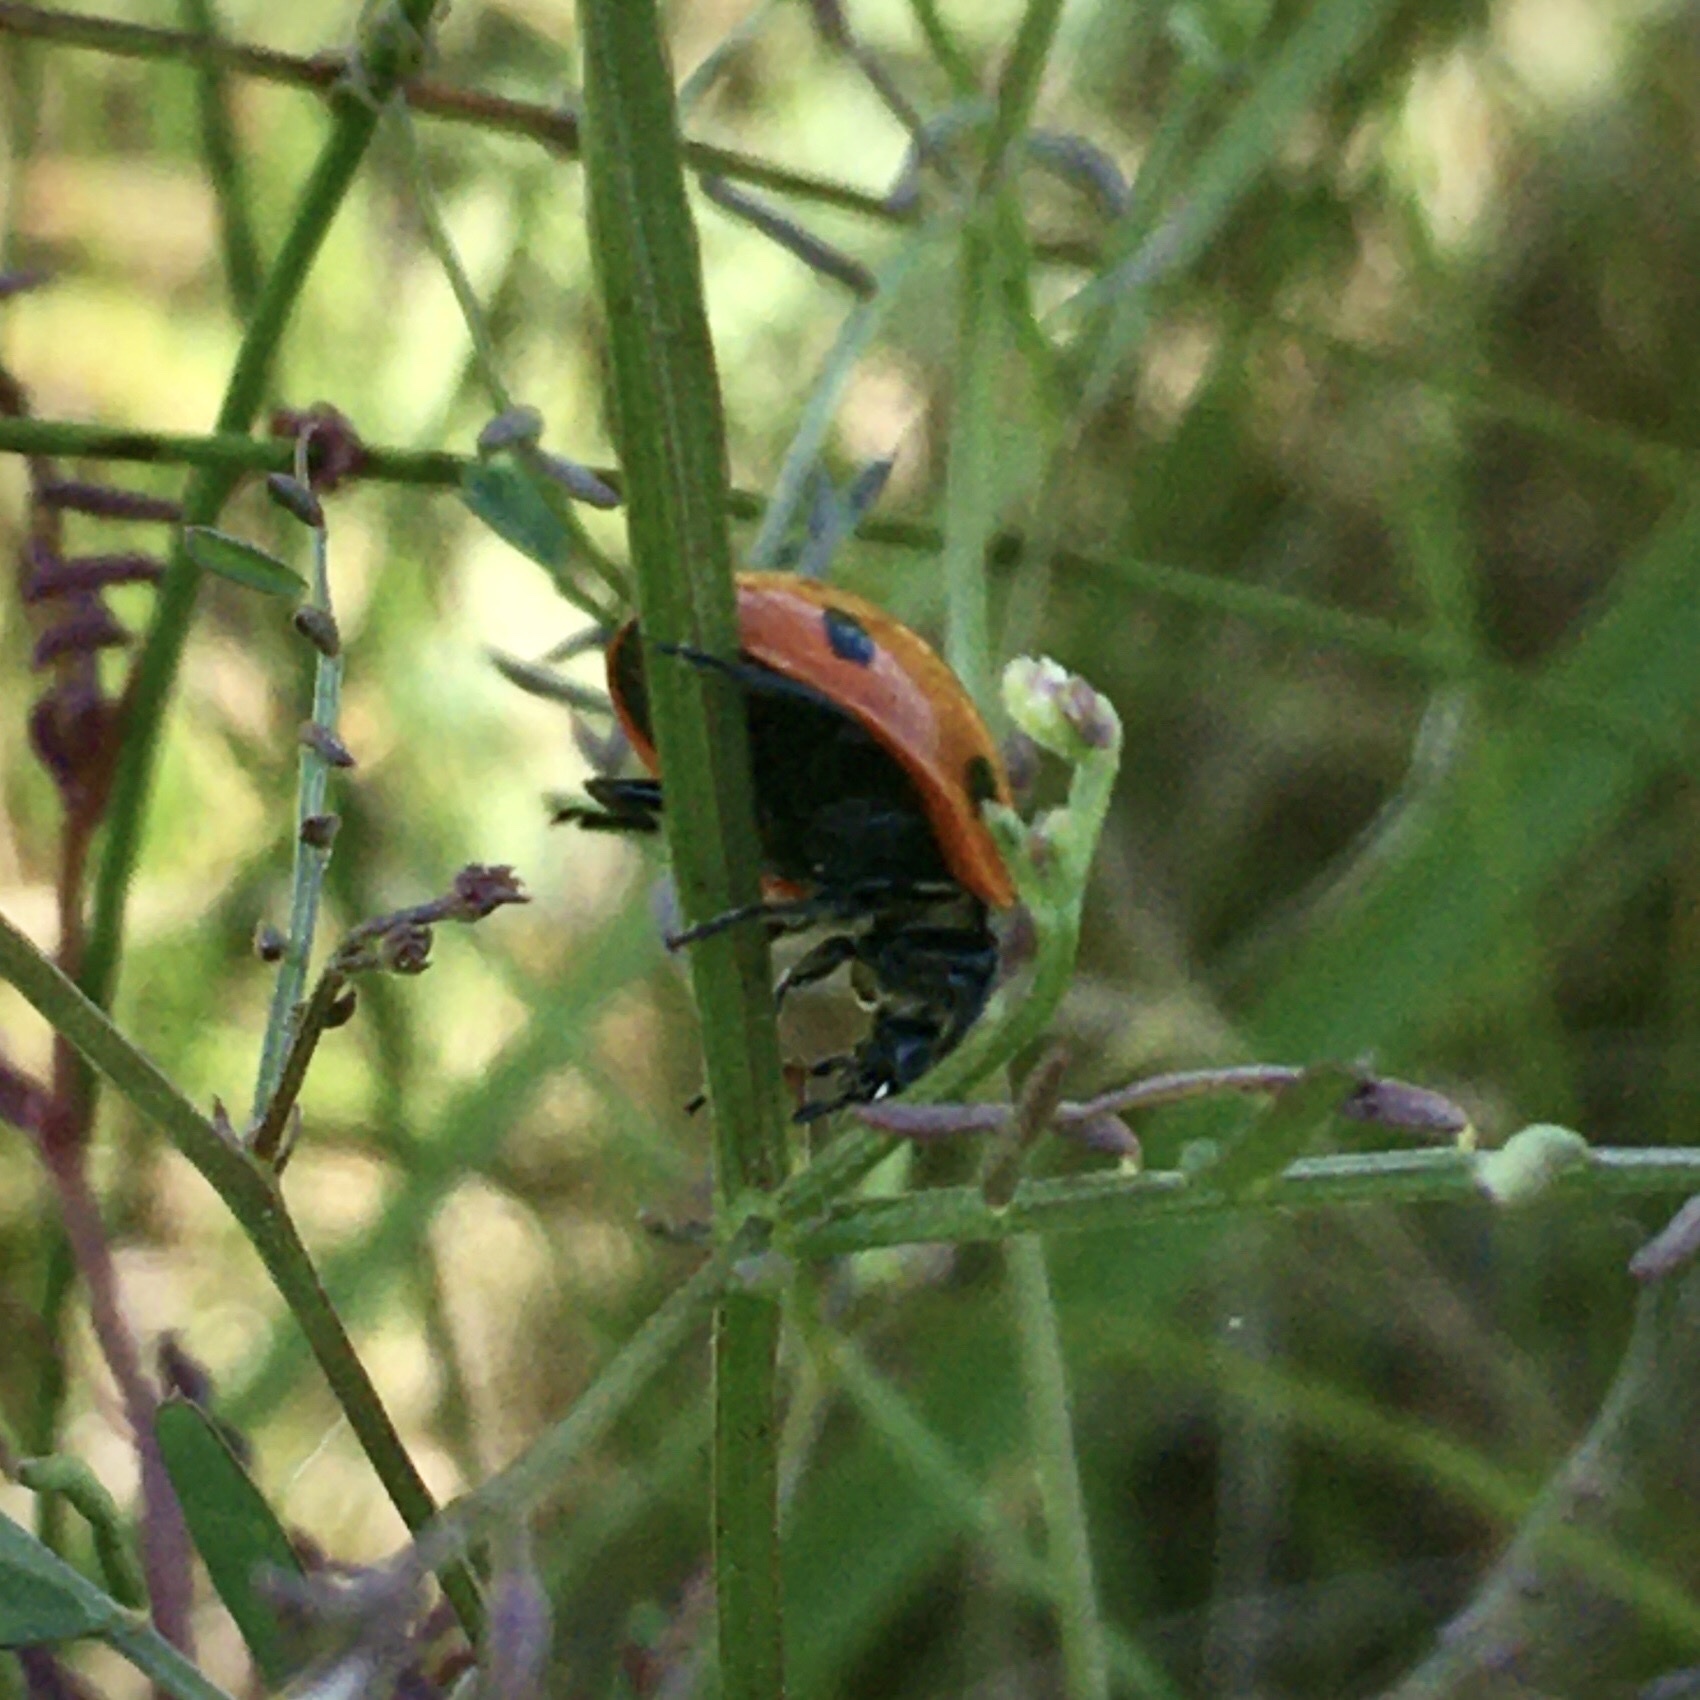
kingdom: Animalia
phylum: Arthropoda
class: Insecta
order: Coleoptera
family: Coccinellidae
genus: Coccinella
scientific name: Coccinella septempunctata
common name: Sevenspotted lady beetle
